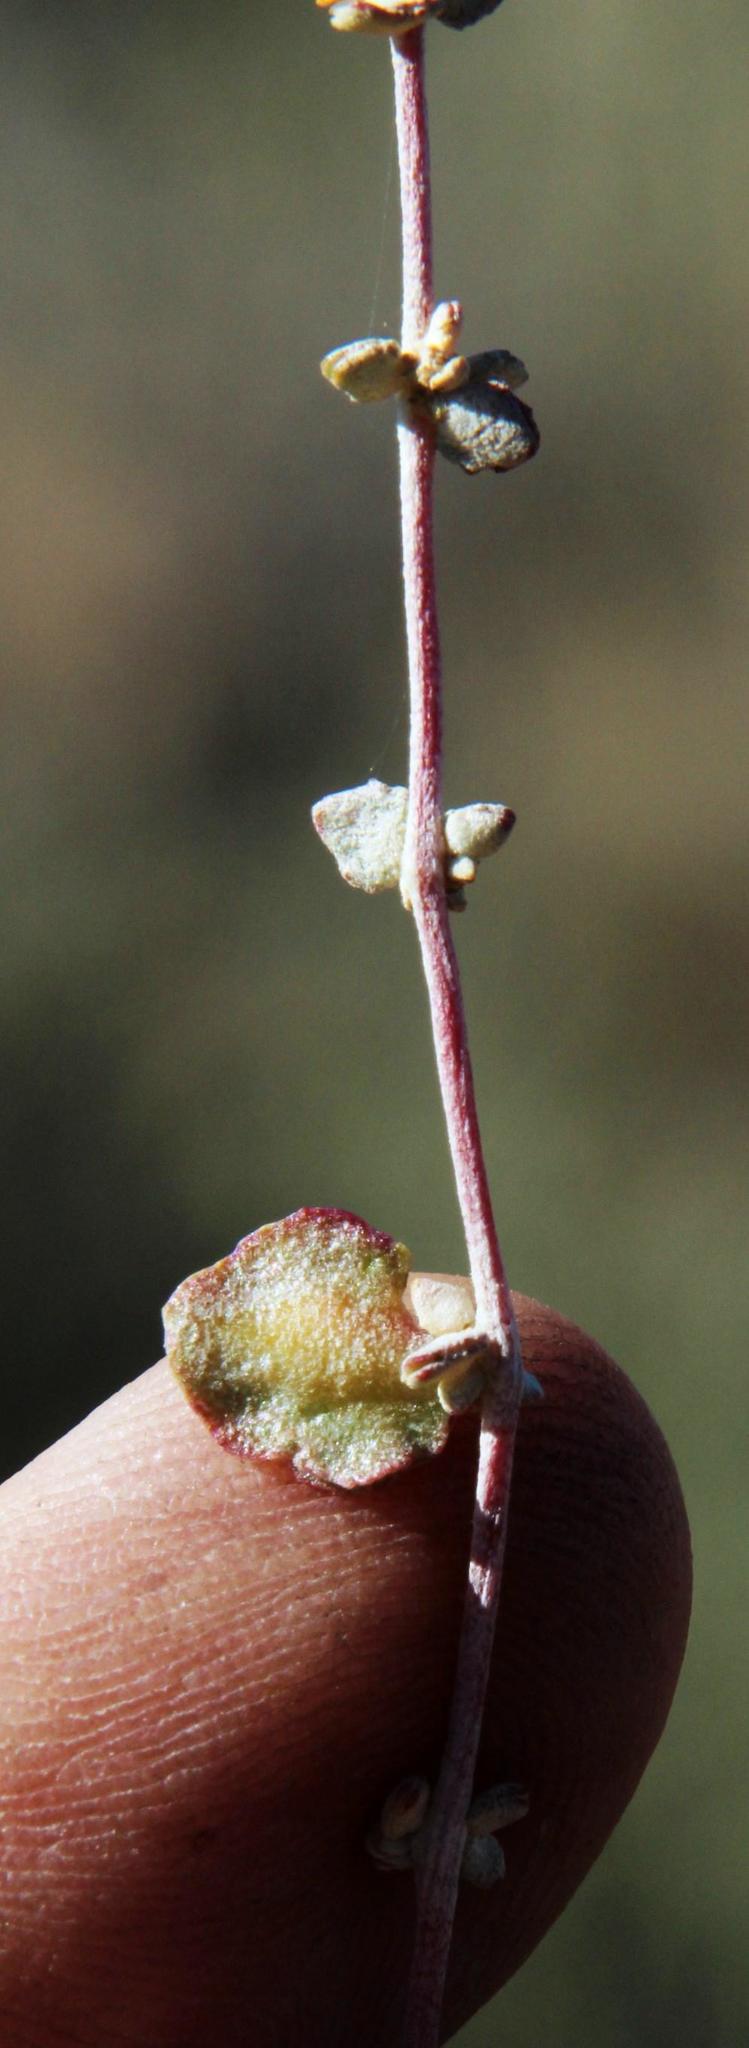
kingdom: Plantae
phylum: Tracheophyta
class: Magnoliopsida
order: Caryophyllales
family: Amaranthaceae
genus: Atriplex
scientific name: Atriplex vestita
